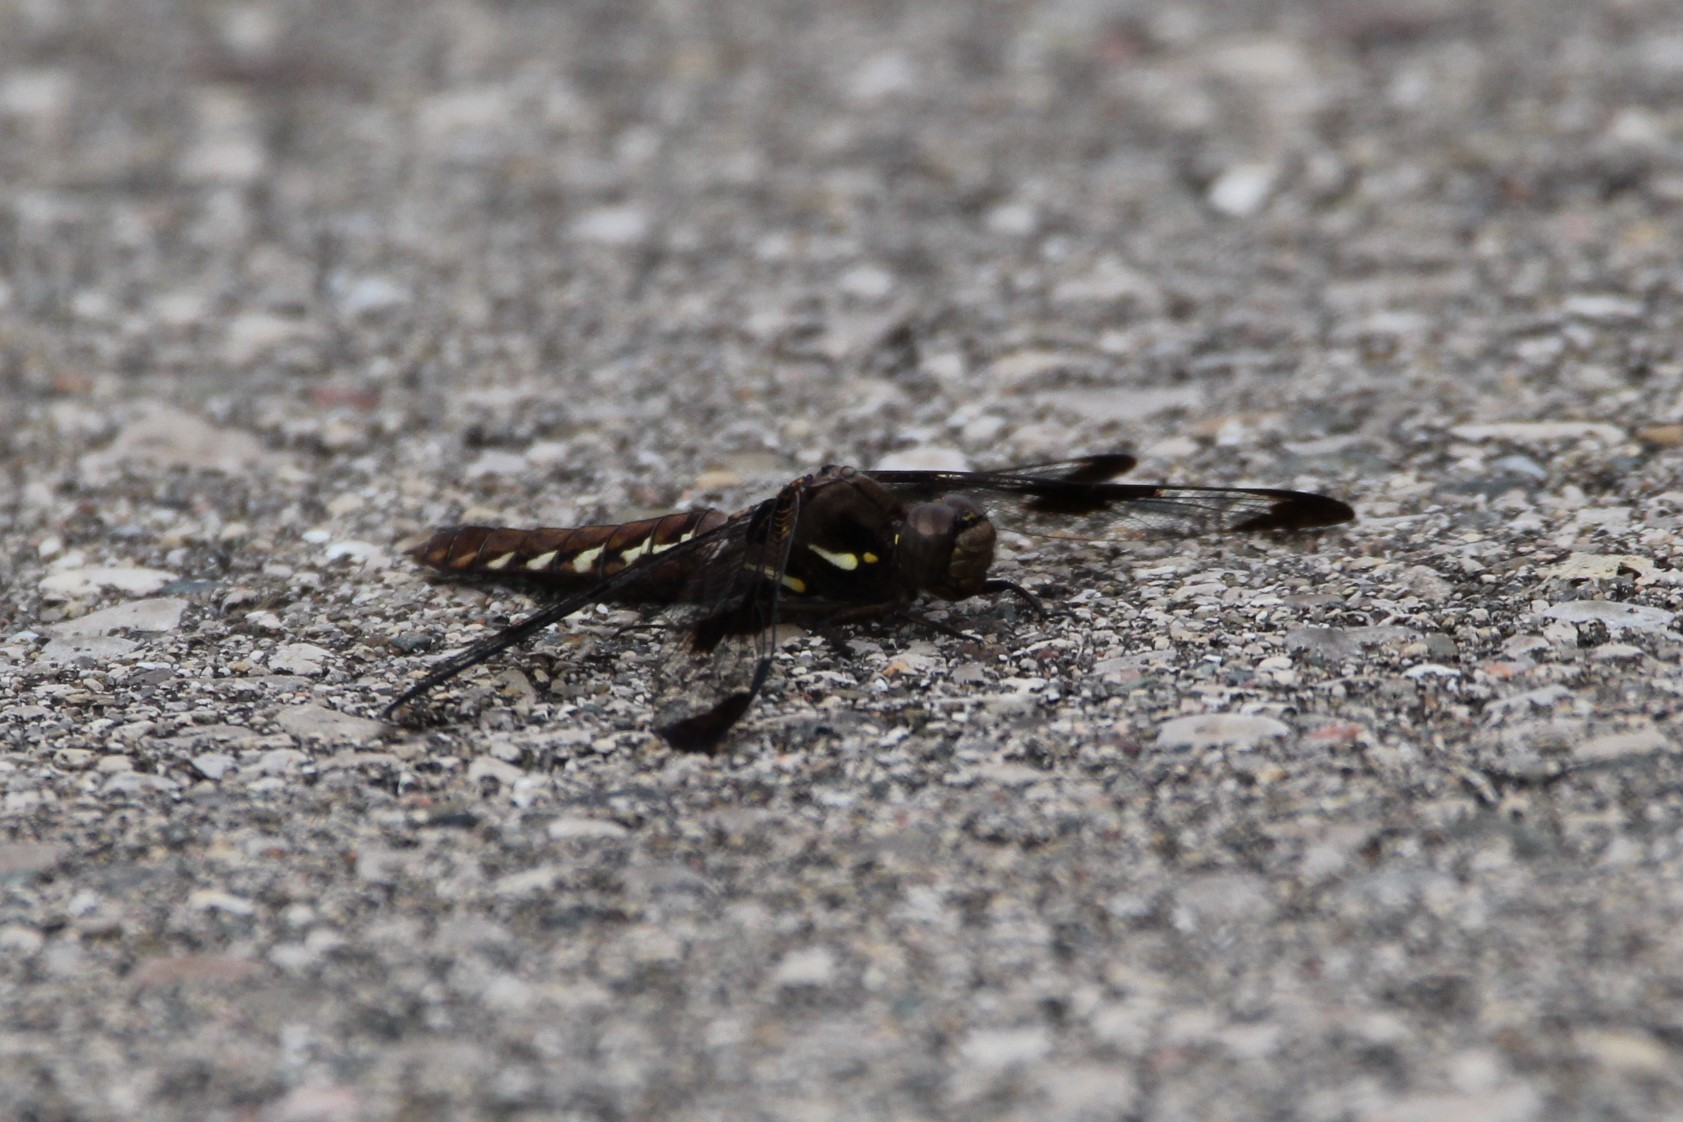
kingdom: Animalia
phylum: Arthropoda
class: Insecta
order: Odonata
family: Libellulidae
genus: Plathemis
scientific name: Plathemis lydia
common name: Common whitetail
